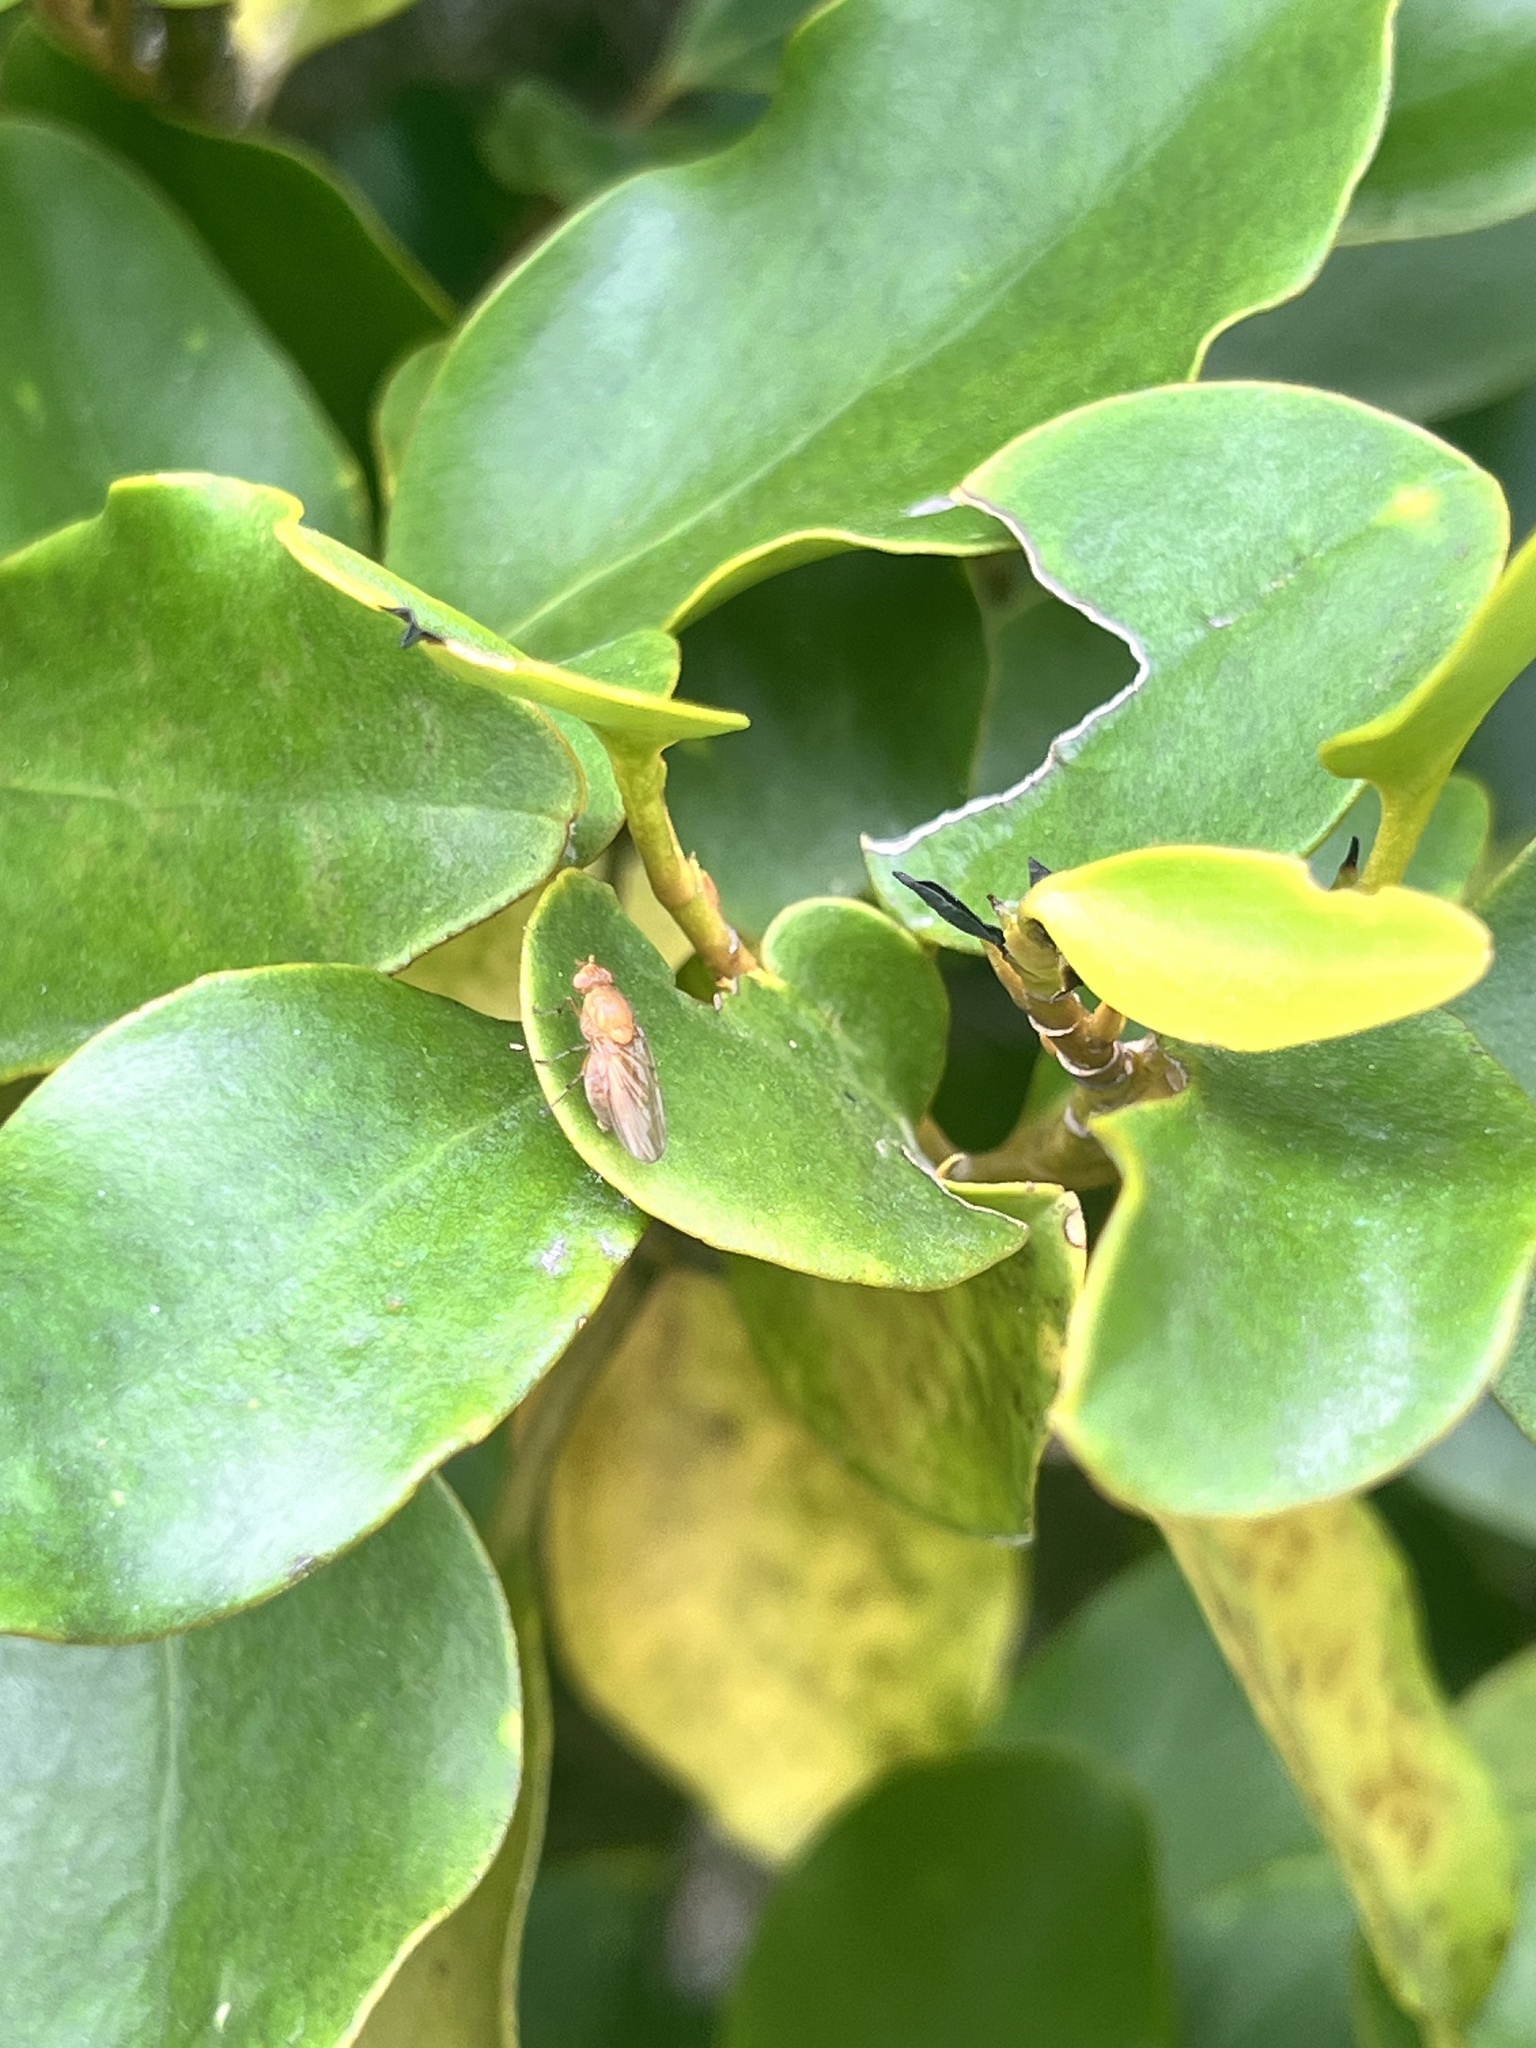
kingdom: Plantae
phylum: Tracheophyta
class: Magnoliopsida
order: Apiales
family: Griseliniaceae
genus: Griselinia
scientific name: Griselinia littoralis
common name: New zealand broadleaf
